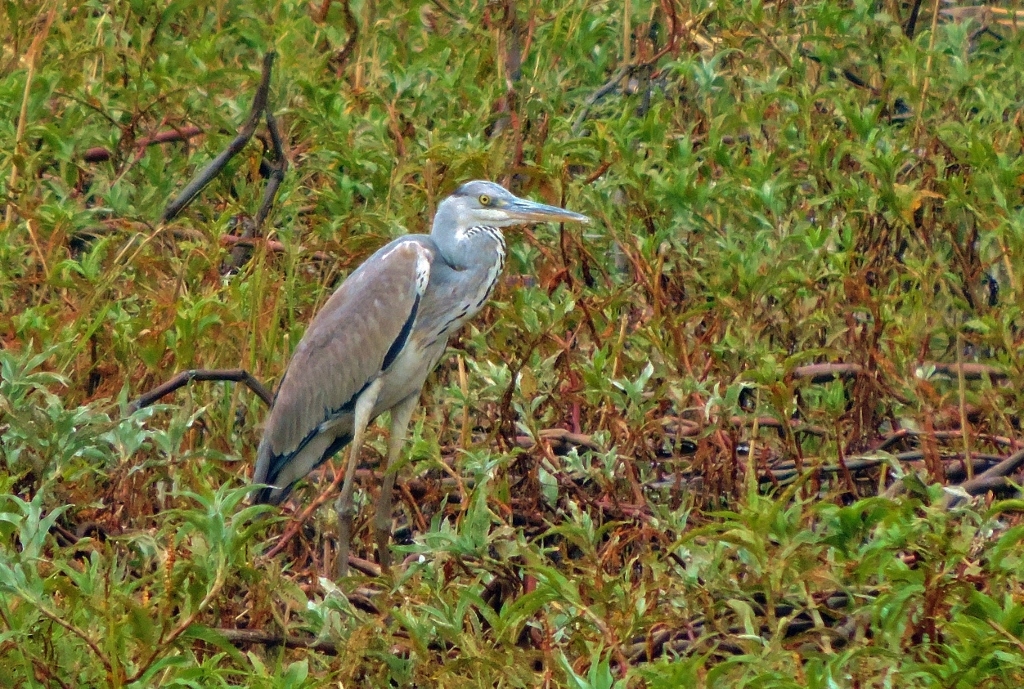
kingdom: Animalia
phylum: Chordata
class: Aves
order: Pelecaniformes
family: Ardeidae
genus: Ardea
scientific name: Ardea cinerea
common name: Grey heron
